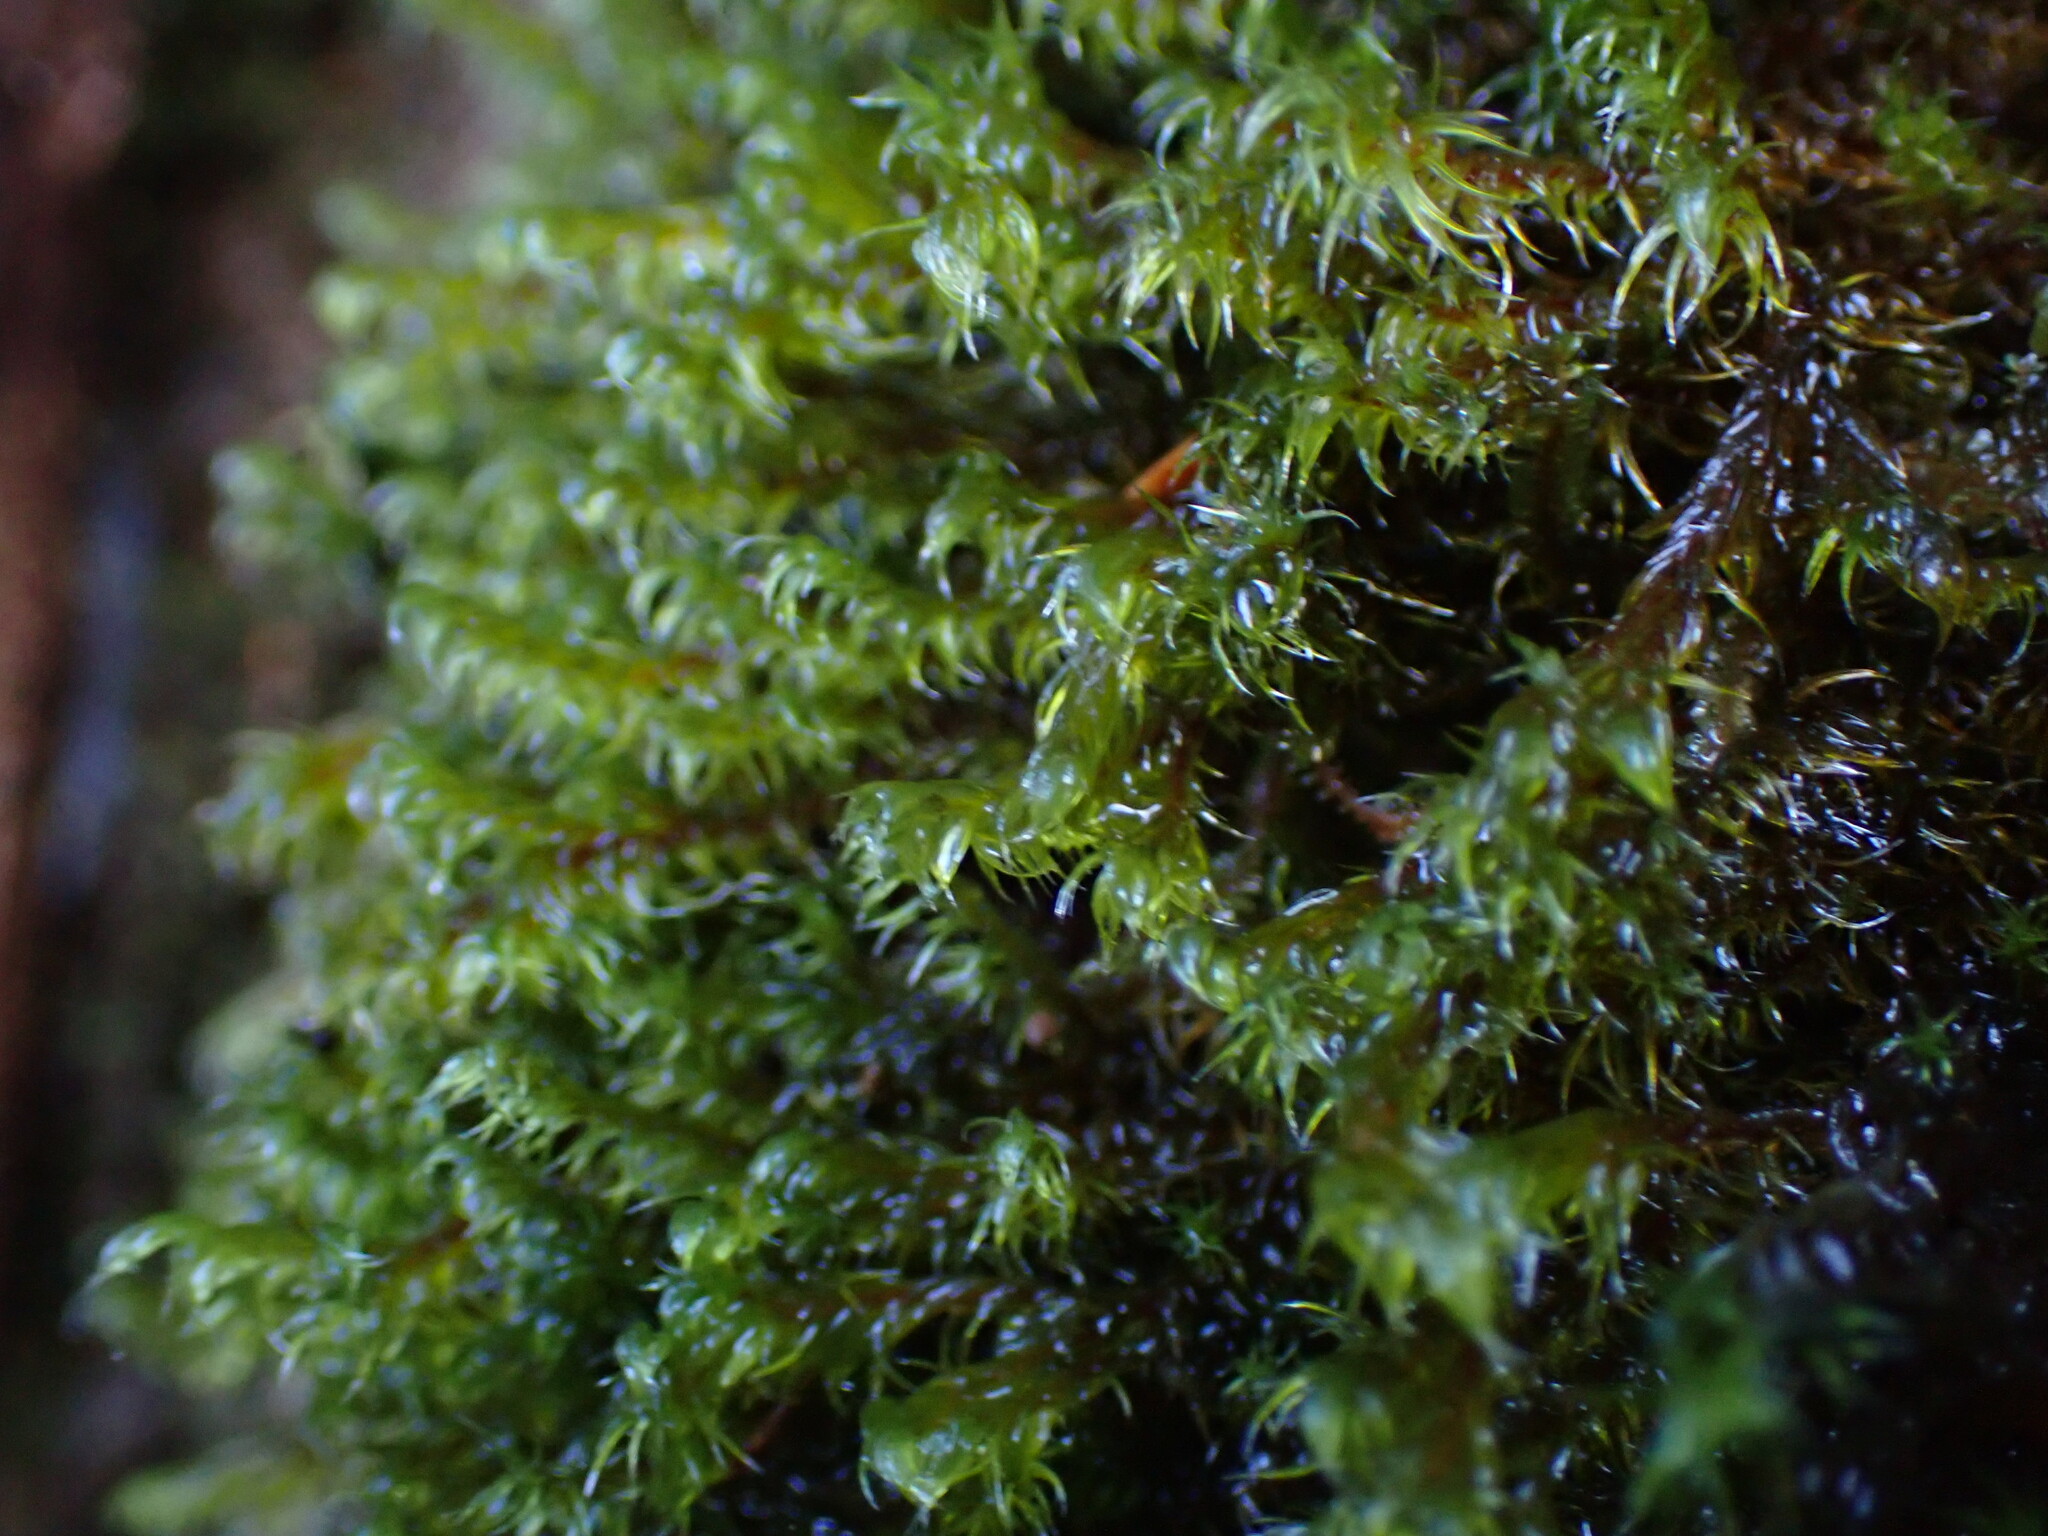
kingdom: Plantae
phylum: Bryophyta
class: Bryopsida
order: Grimmiales
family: Grimmiaceae
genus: Bucklandiella
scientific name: Bucklandiella lawtonae
